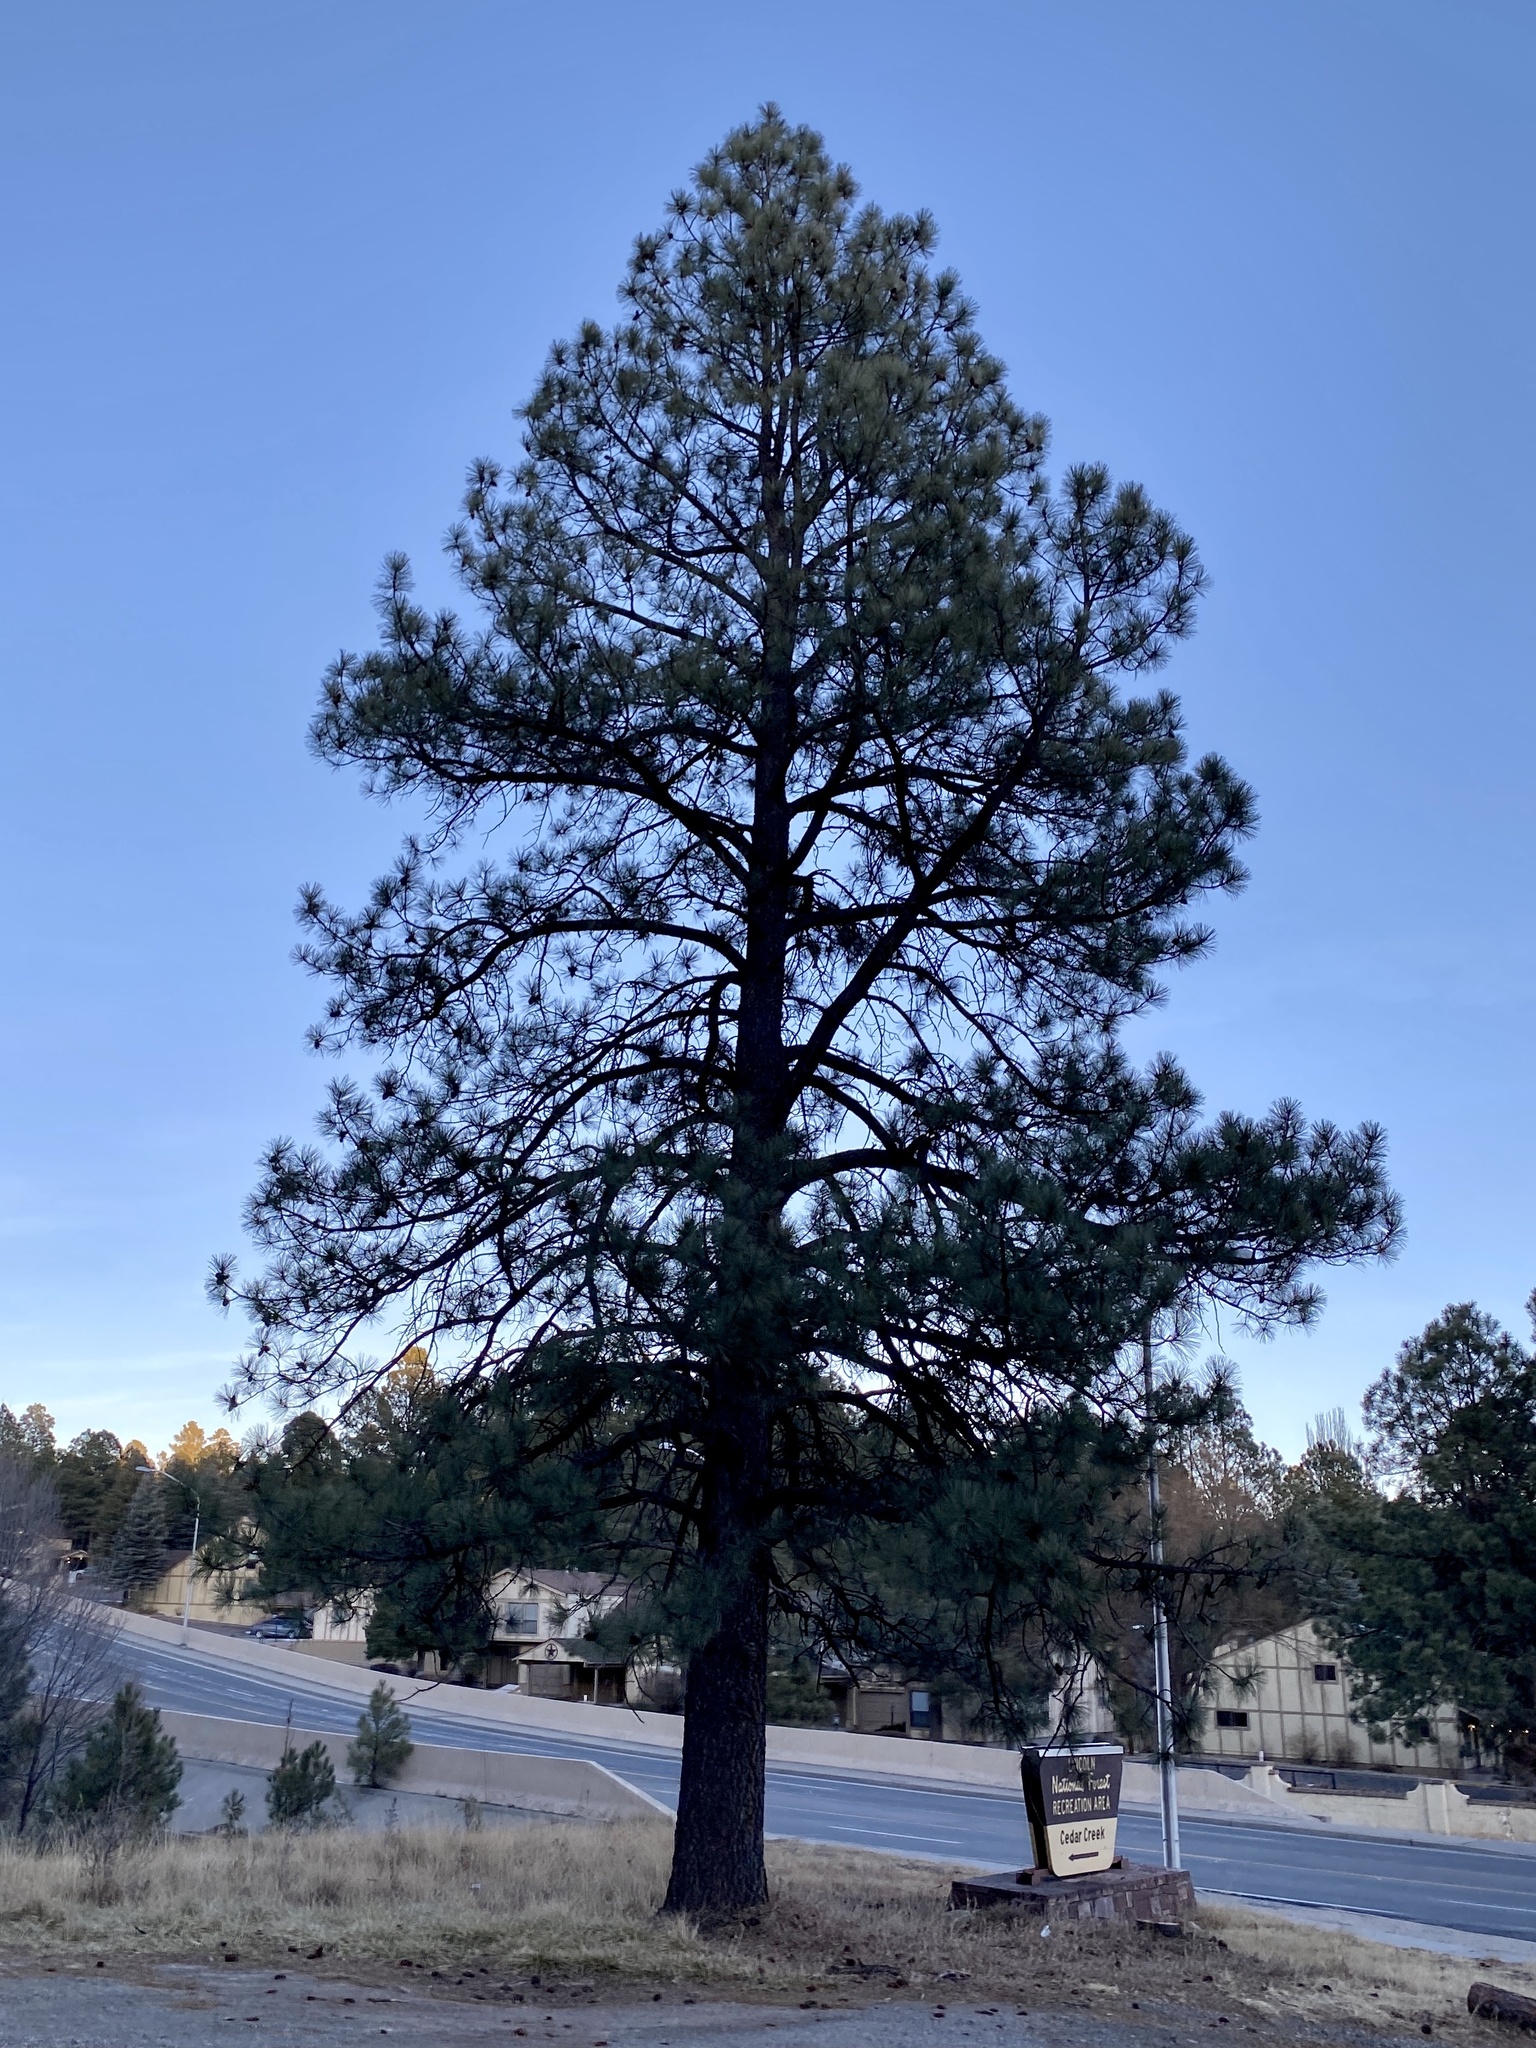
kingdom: Plantae
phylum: Tracheophyta
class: Pinopsida
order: Pinales
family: Pinaceae
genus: Pinus
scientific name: Pinus ponderosa
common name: Western yellow-pine
